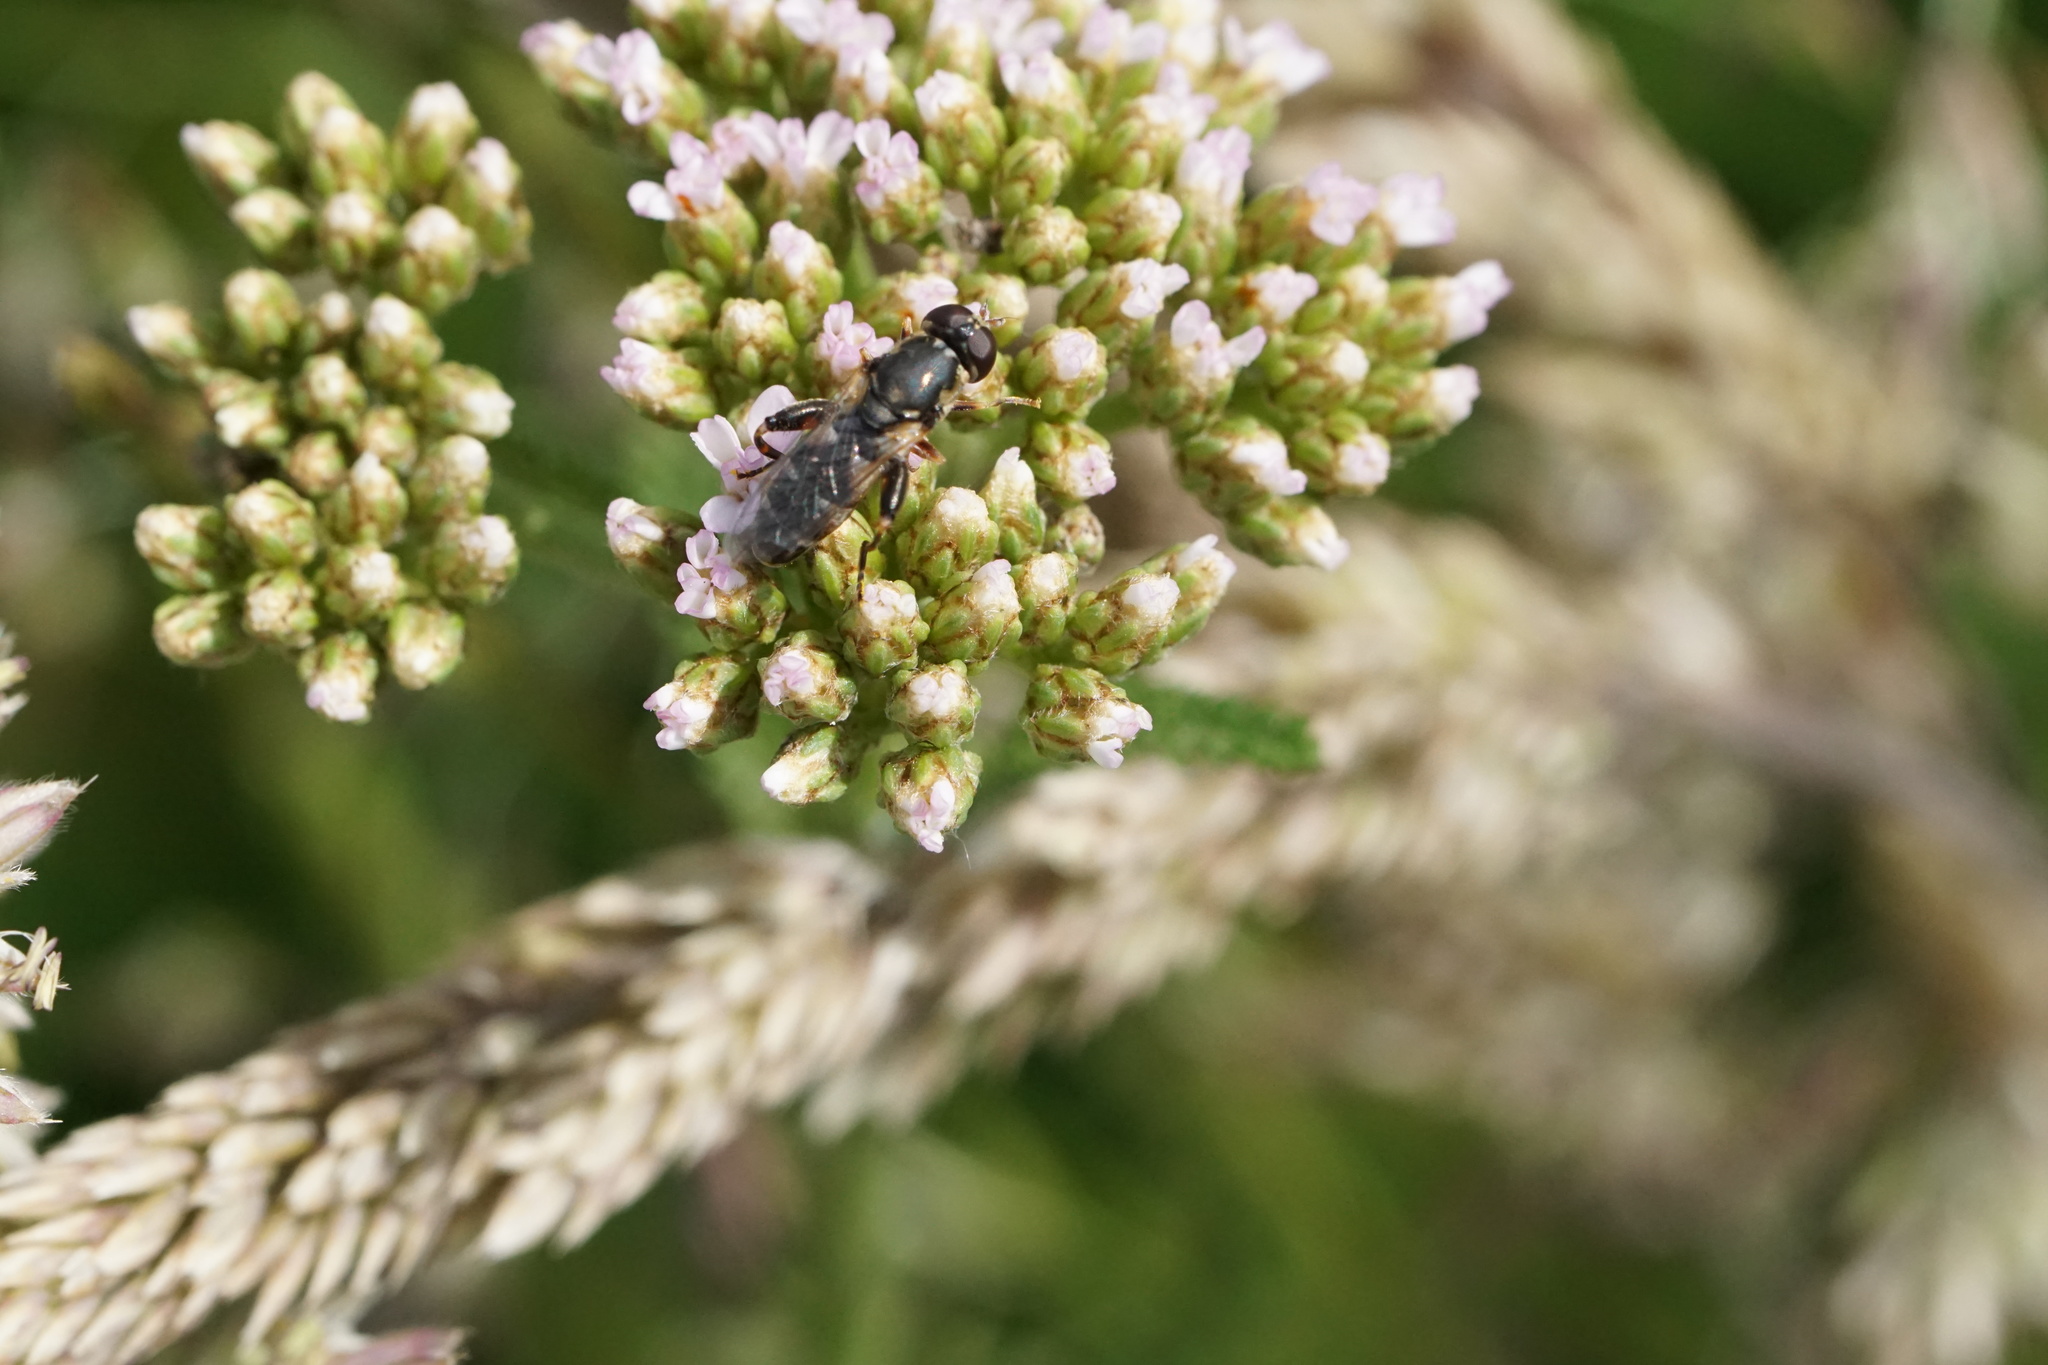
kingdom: Animalia
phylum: Arthropoda
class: Insecta
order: Diptera
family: Syrphidae
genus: Syritta
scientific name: Syritta pipiens
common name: Hover fly
